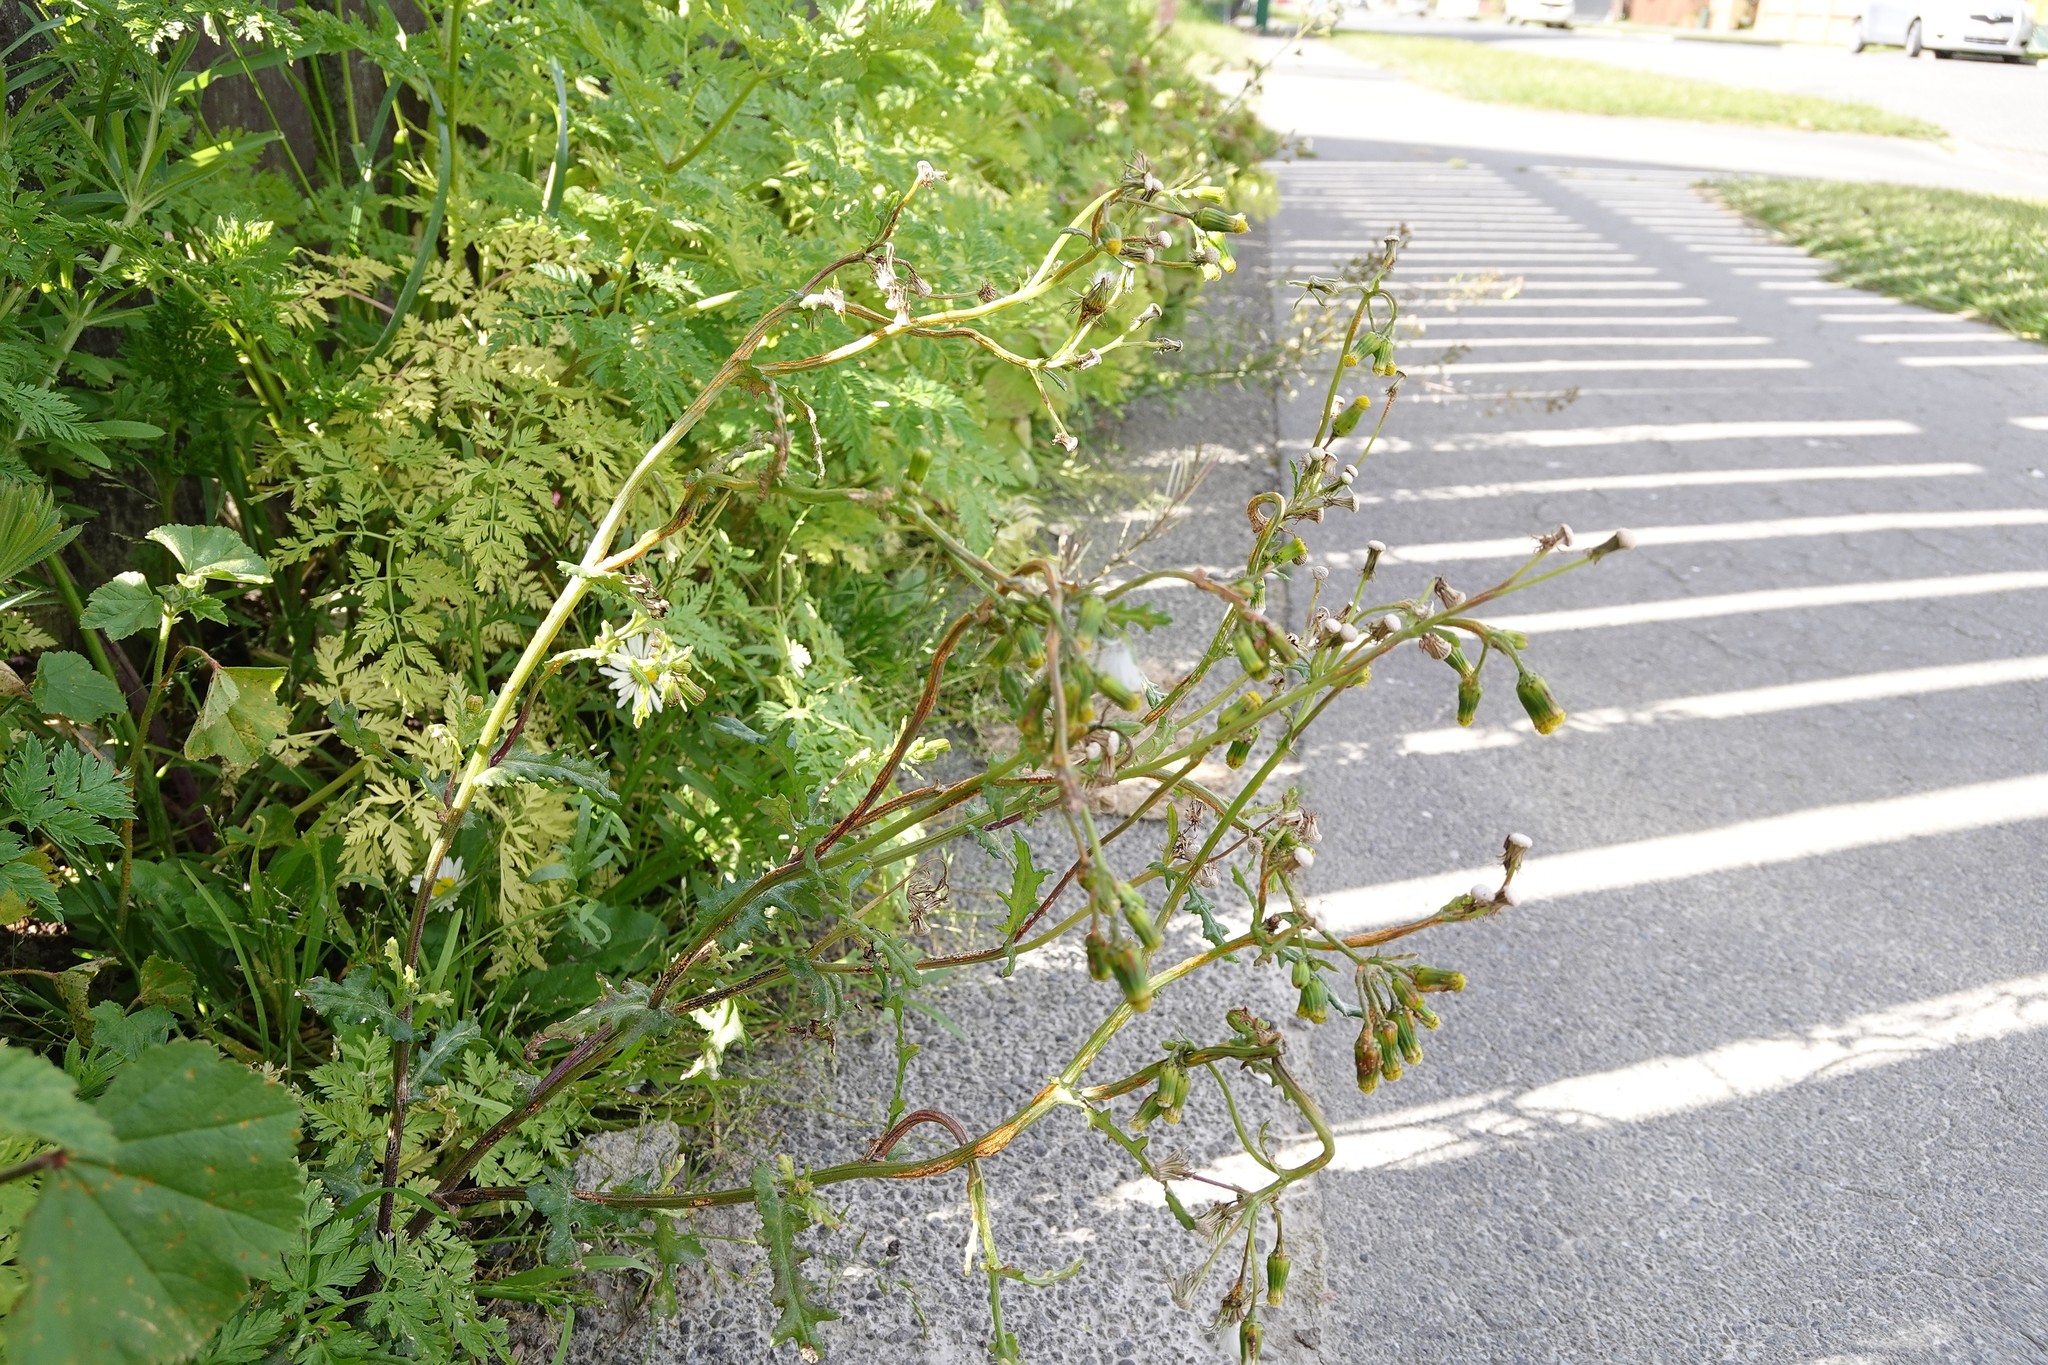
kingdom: Plantae
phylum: Tracheophyta
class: Magnoliopsida
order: Asterales
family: Asteraceae
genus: Senecio
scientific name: Senecio vulgaris
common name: Old-man-in-the-spring
